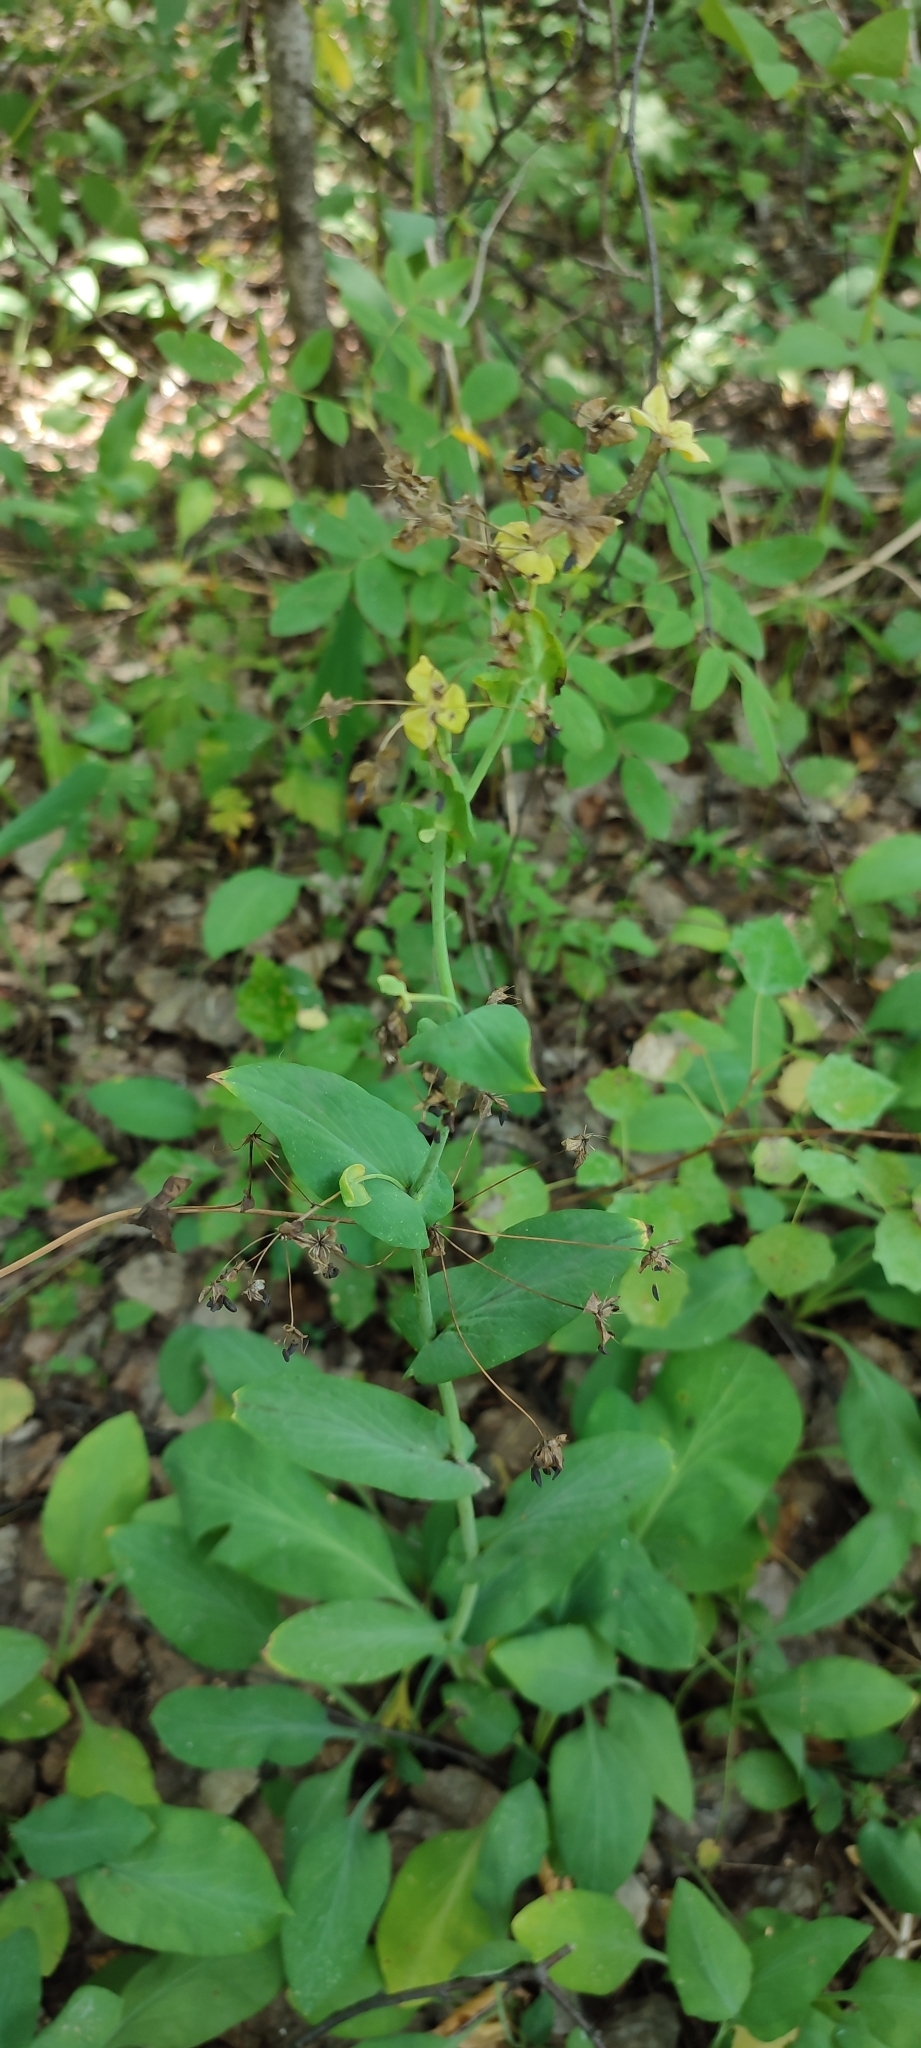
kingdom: Plantae
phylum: Tracheophyta
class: Magnoliopsida
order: Apiales
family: Apiaceae
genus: Bupleurum
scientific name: Bupleurum aureum
